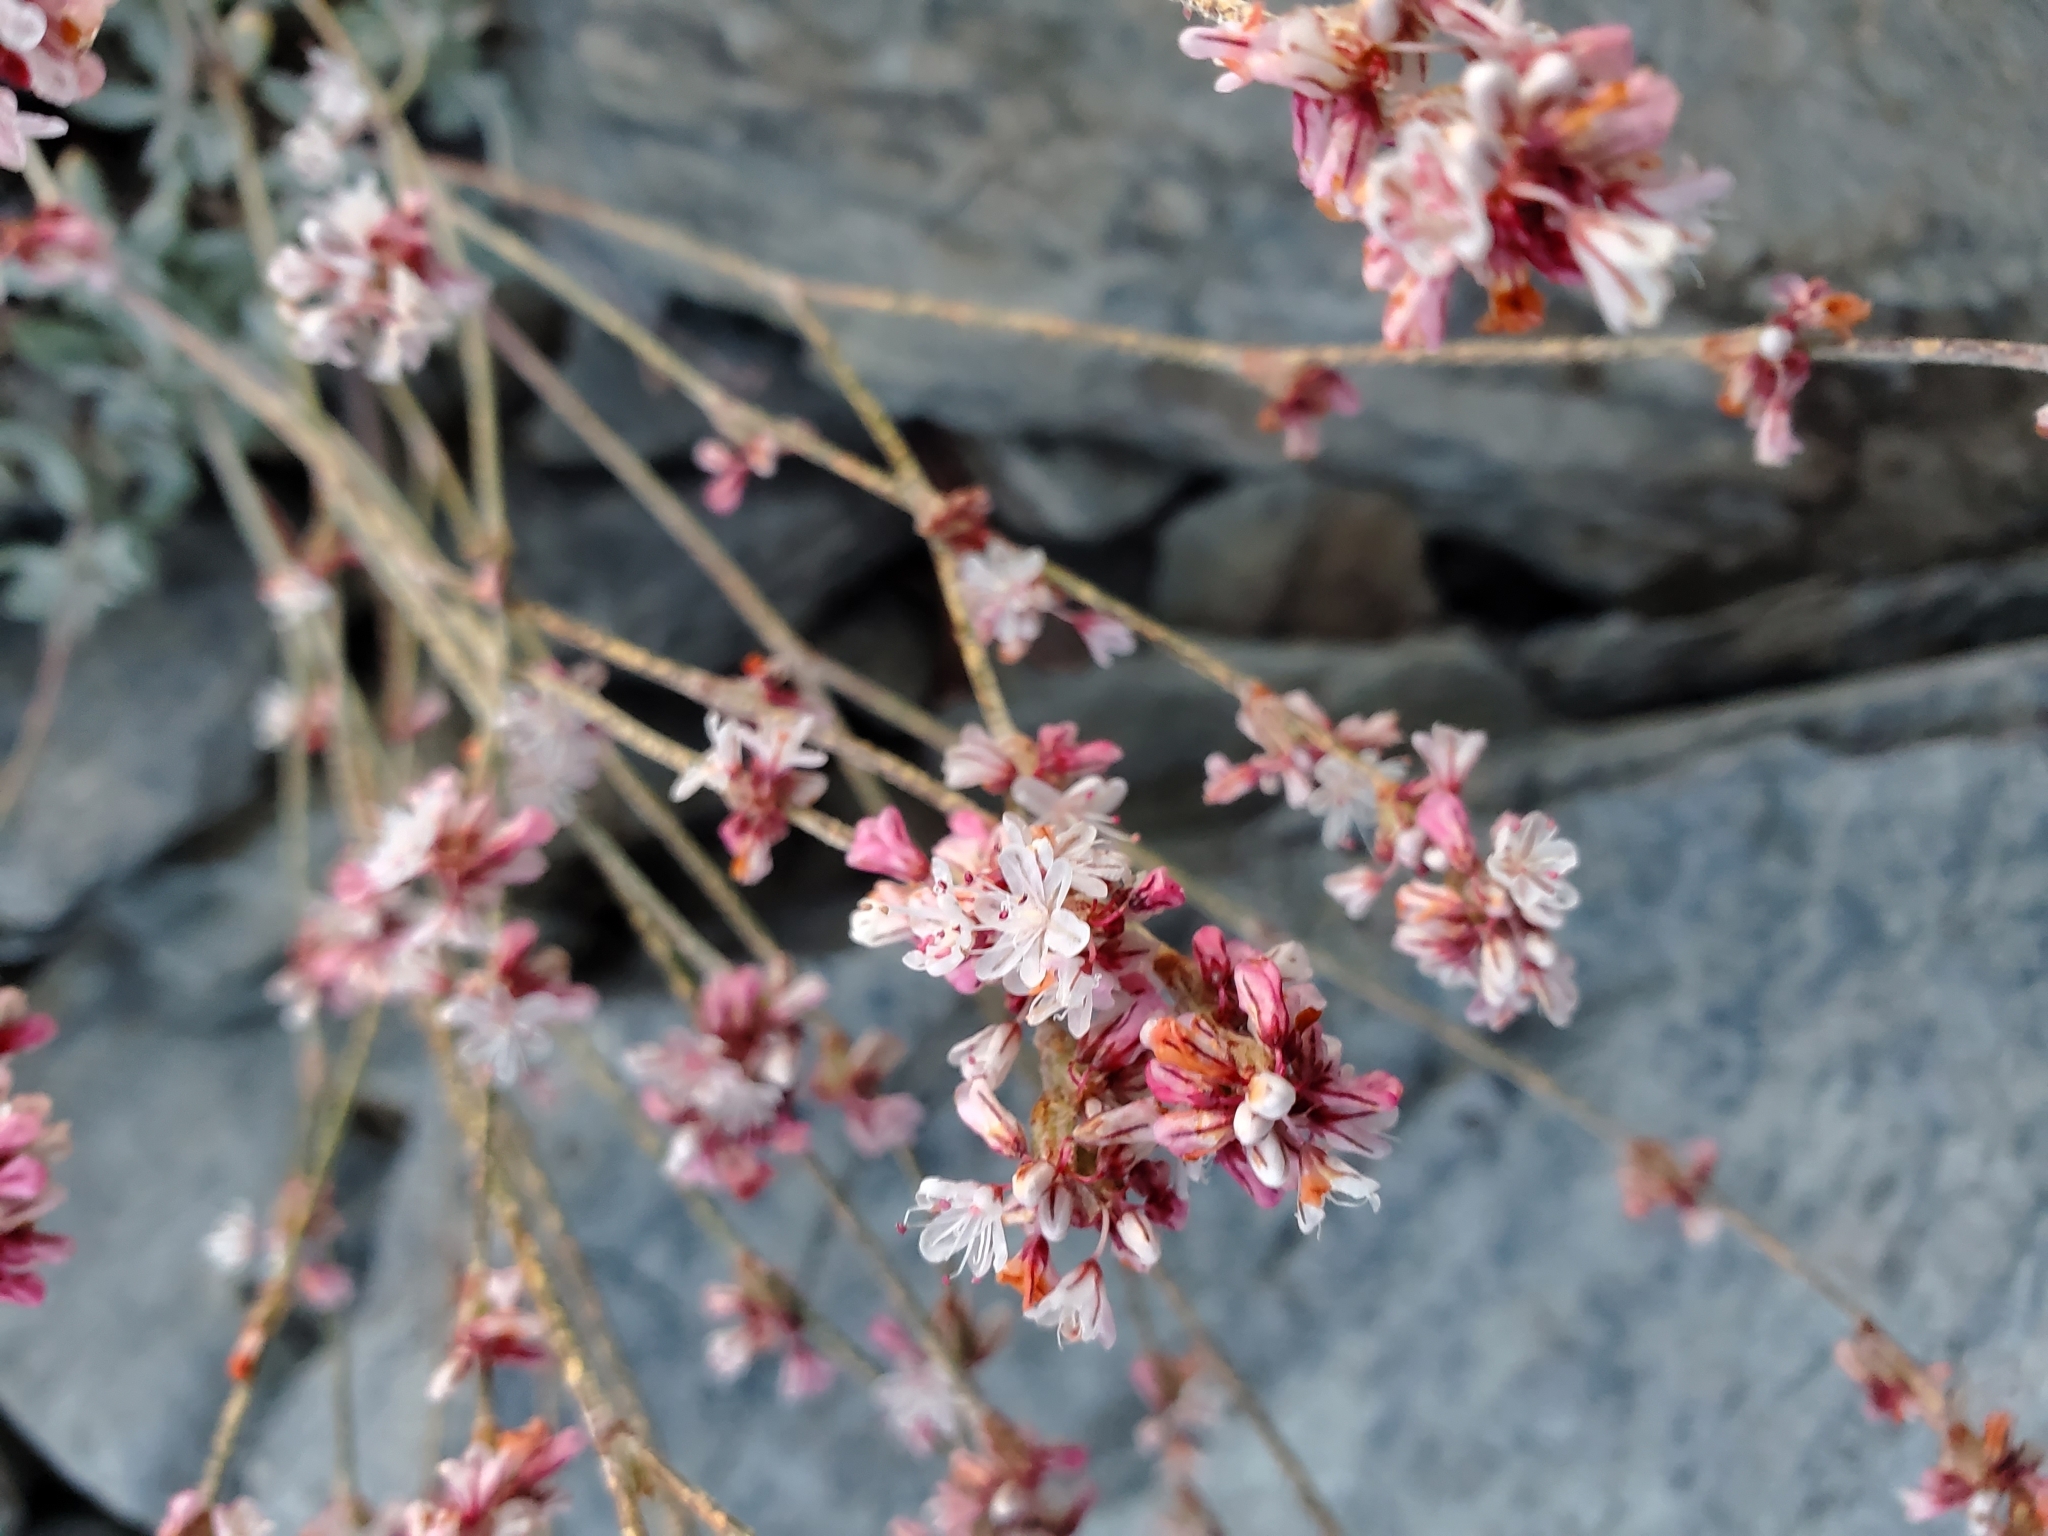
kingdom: Plantae
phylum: Tracheophyta
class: Magnoliopsida
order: Caryophyllales
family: Polygonaceae
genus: Eriogonum
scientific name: Eriogonum wrightii
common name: Bastard-sage
